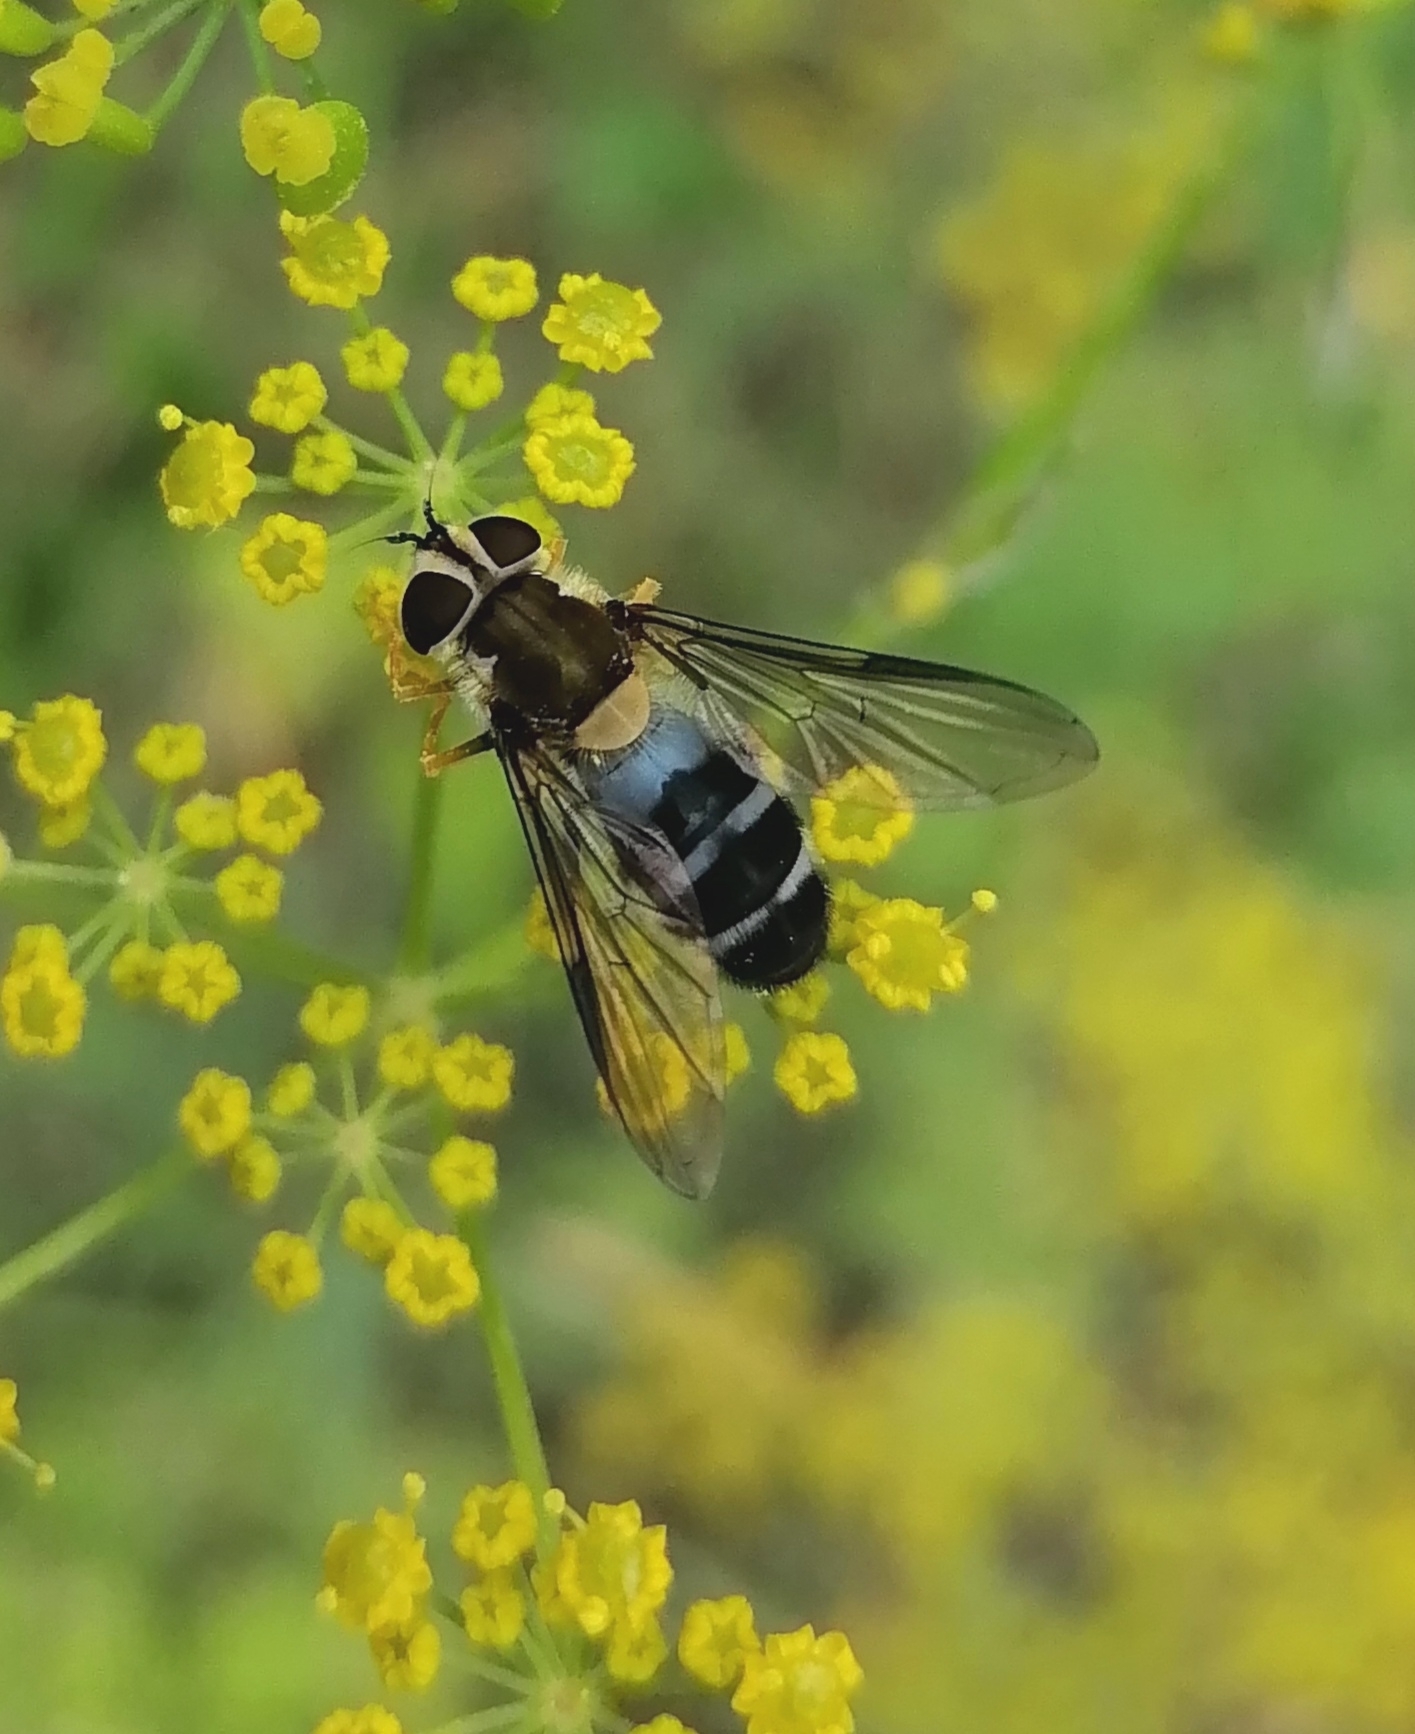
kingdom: Animalia
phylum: Arthropoda
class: Insecta
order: Diptera
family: Syrphidae
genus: Leucozona
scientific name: Leucozona glaucia
